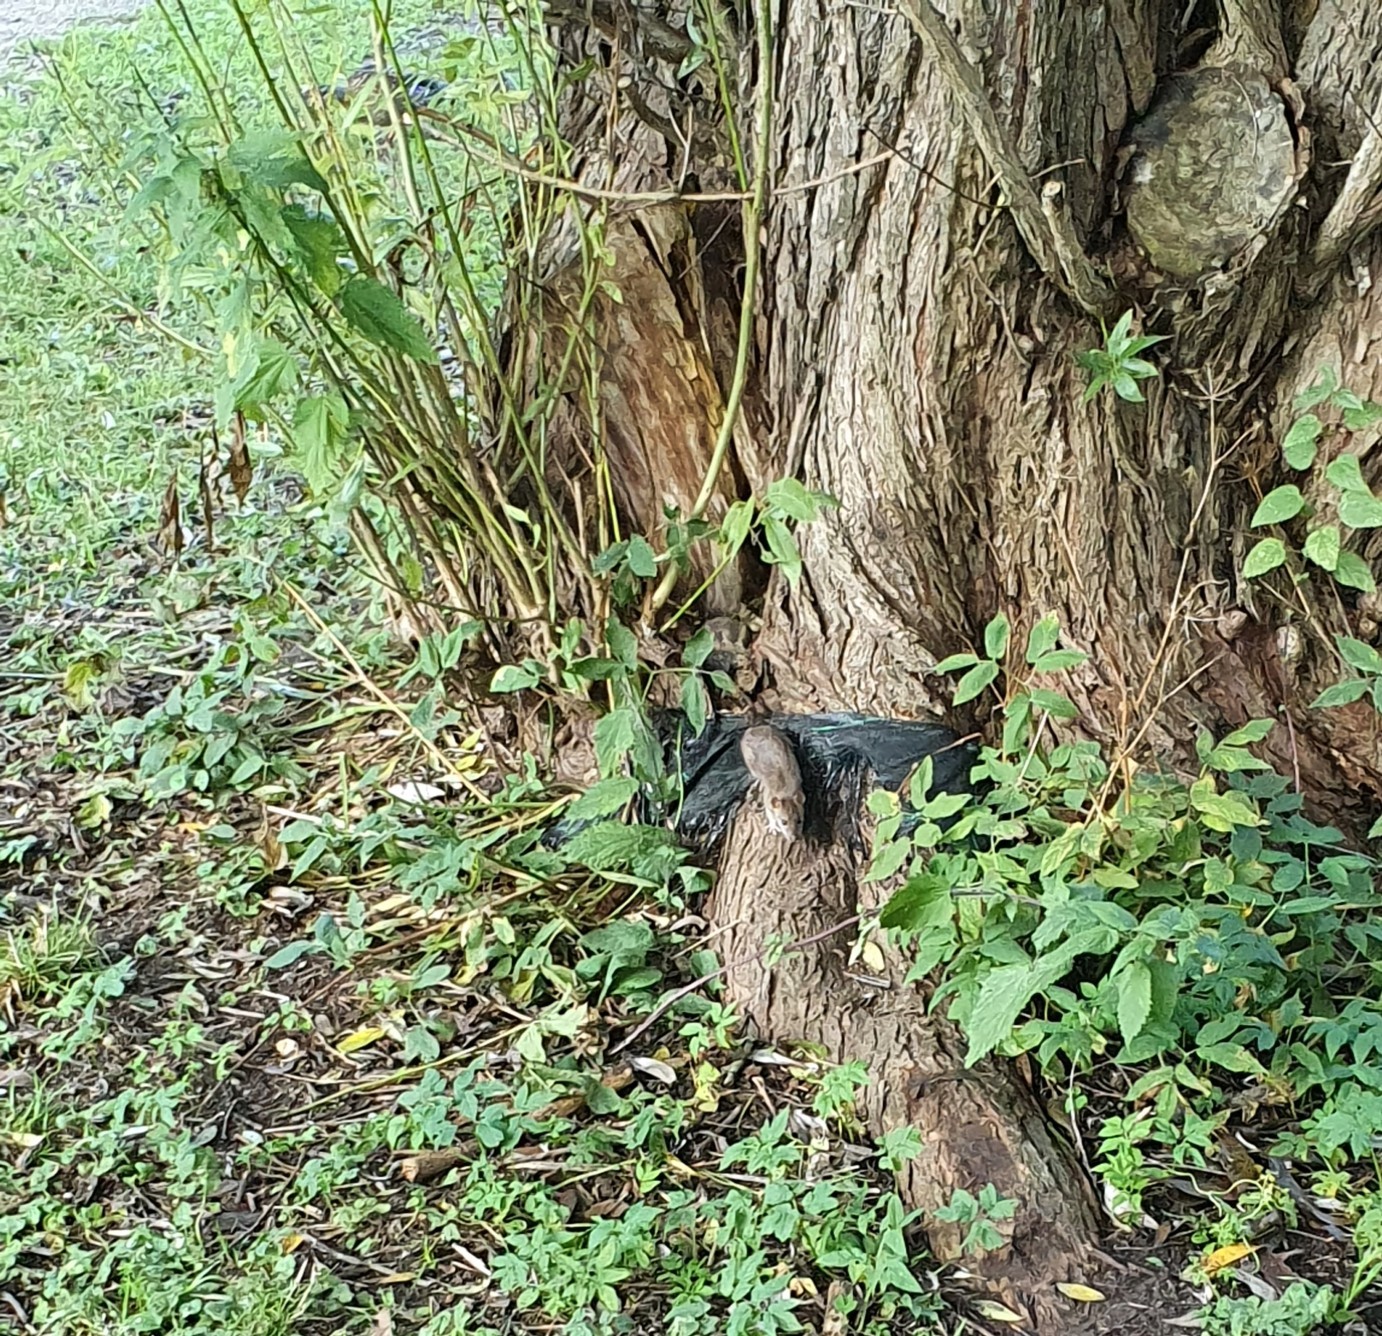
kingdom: Animalia
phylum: Chordata
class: Mammalia
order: Rodentia
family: Muridae
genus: Rattus
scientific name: Rattus norvegicus
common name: Brown rat
